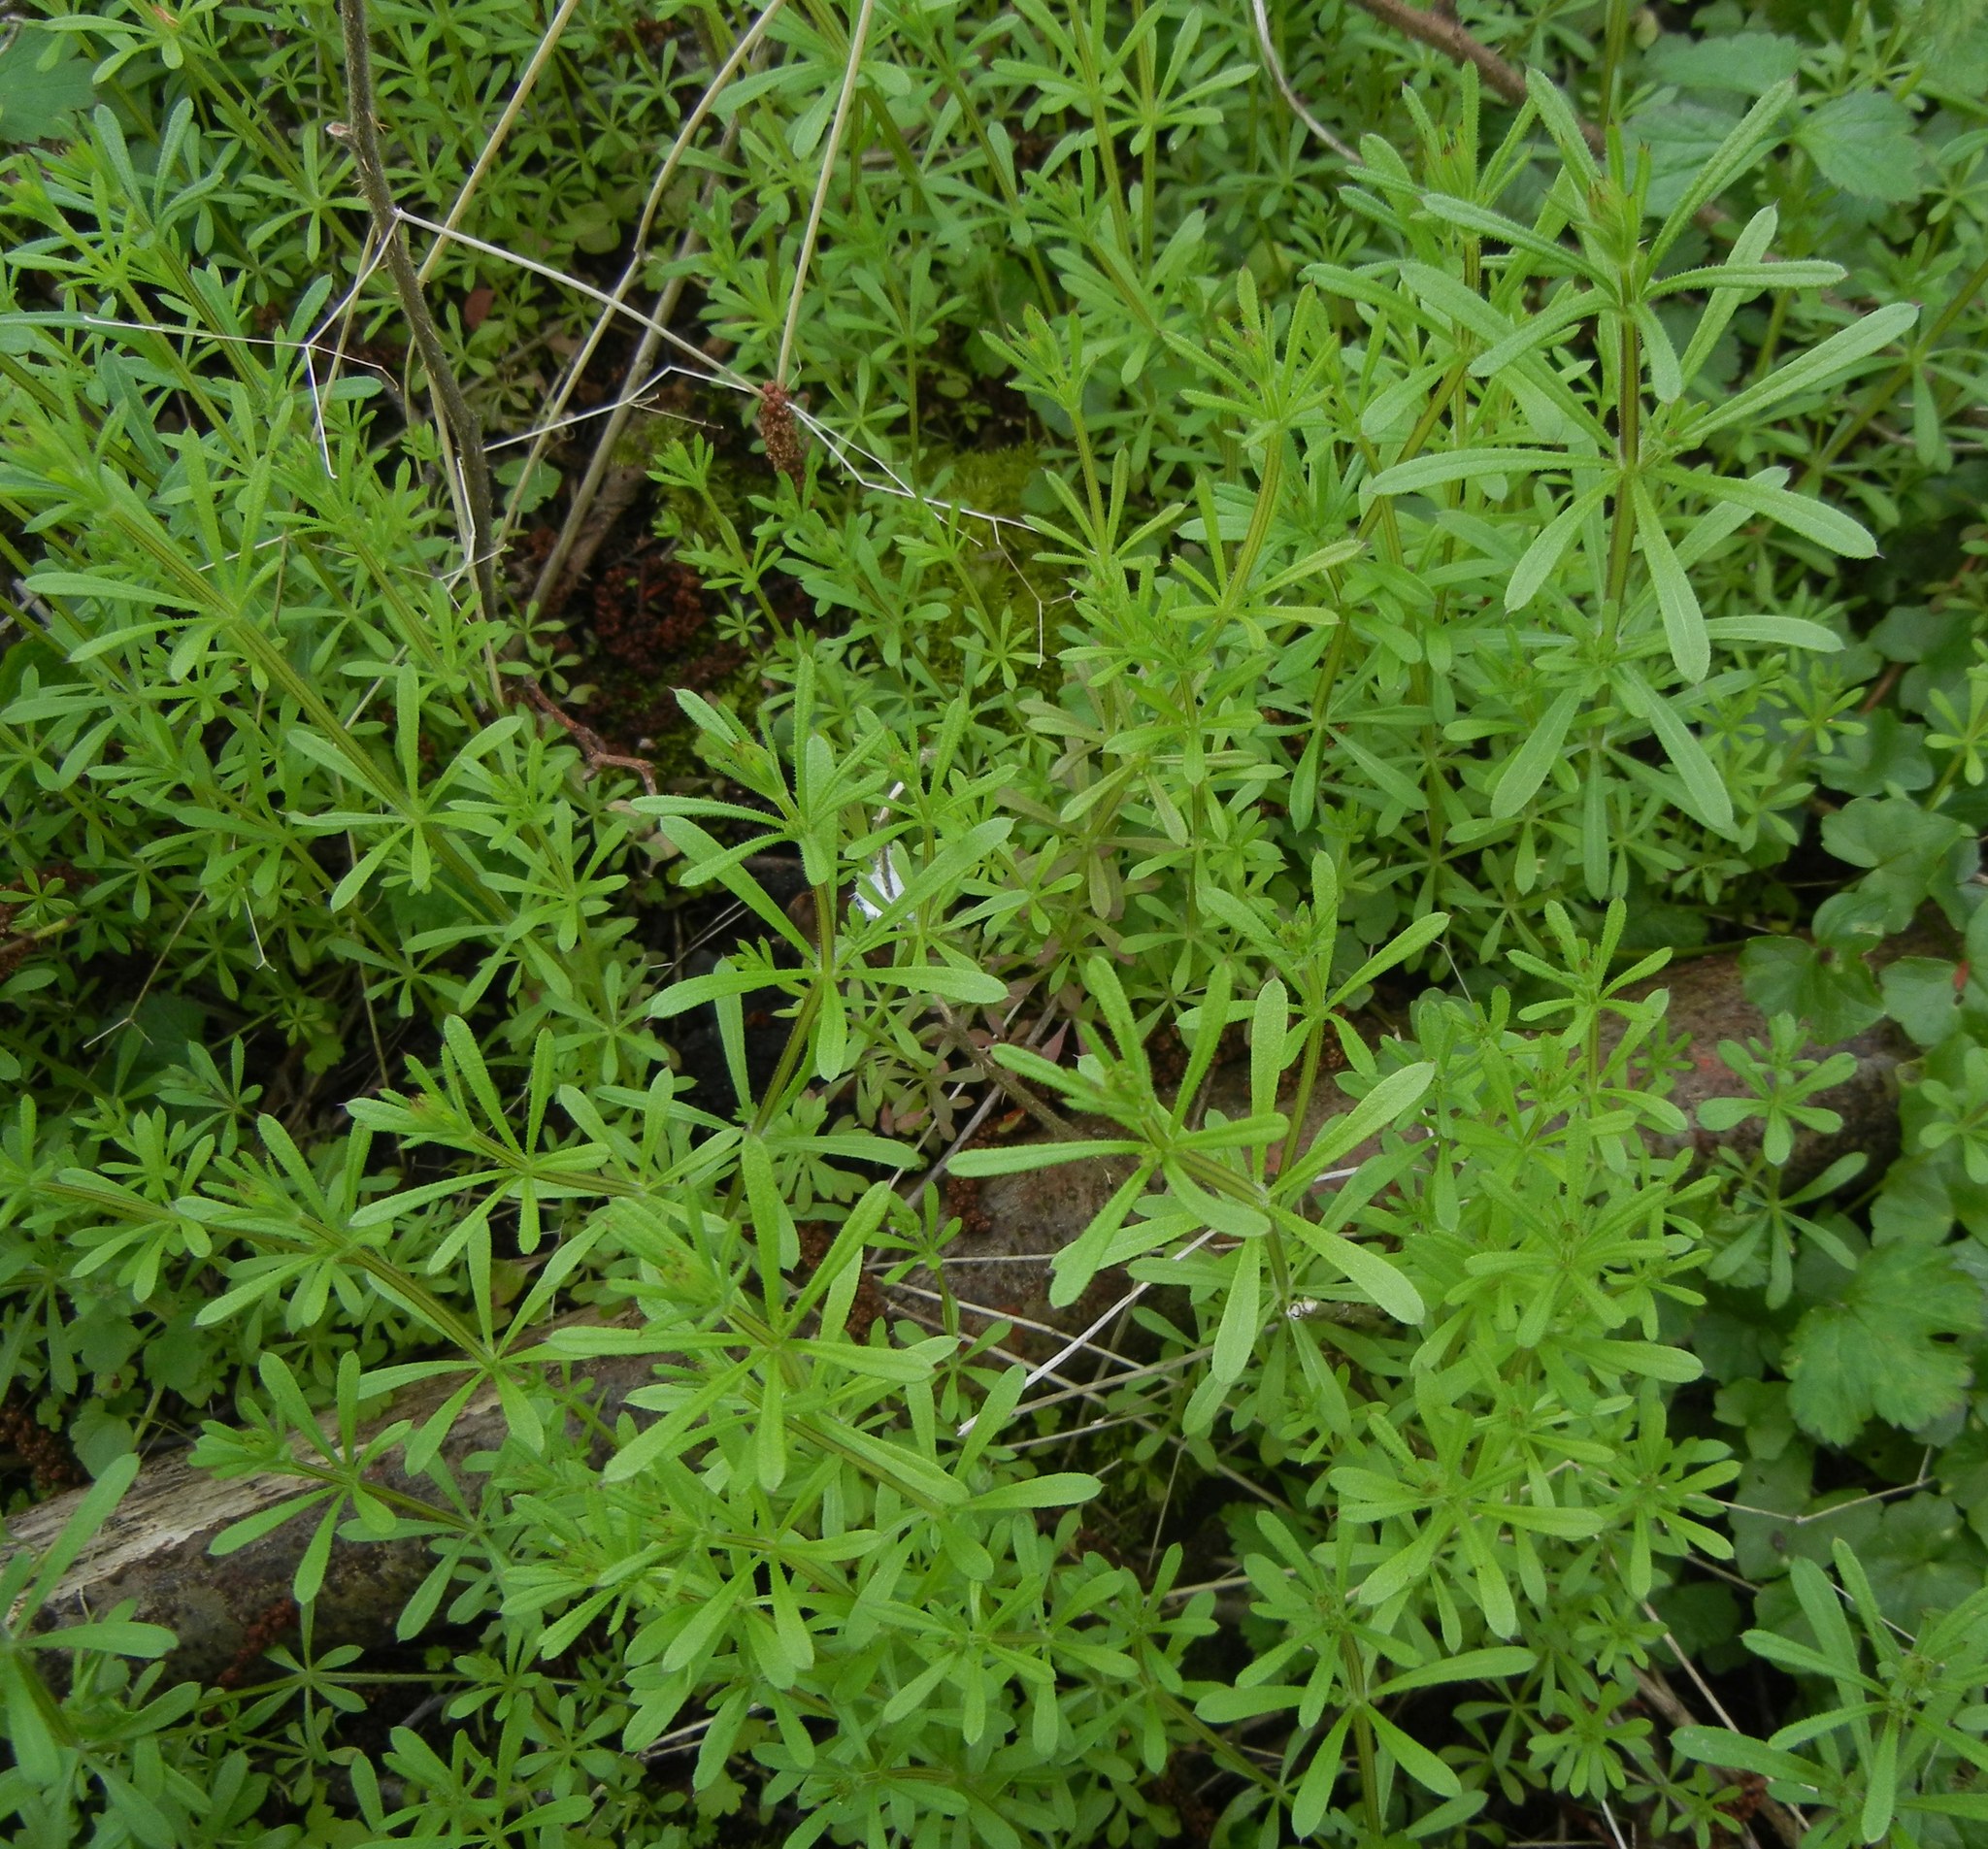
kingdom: Plantae
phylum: Tracheophyta
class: Magnoliopsida
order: Gentianales
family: Rubiaceae
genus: Galium
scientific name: Galium aparine
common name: Cleavers
